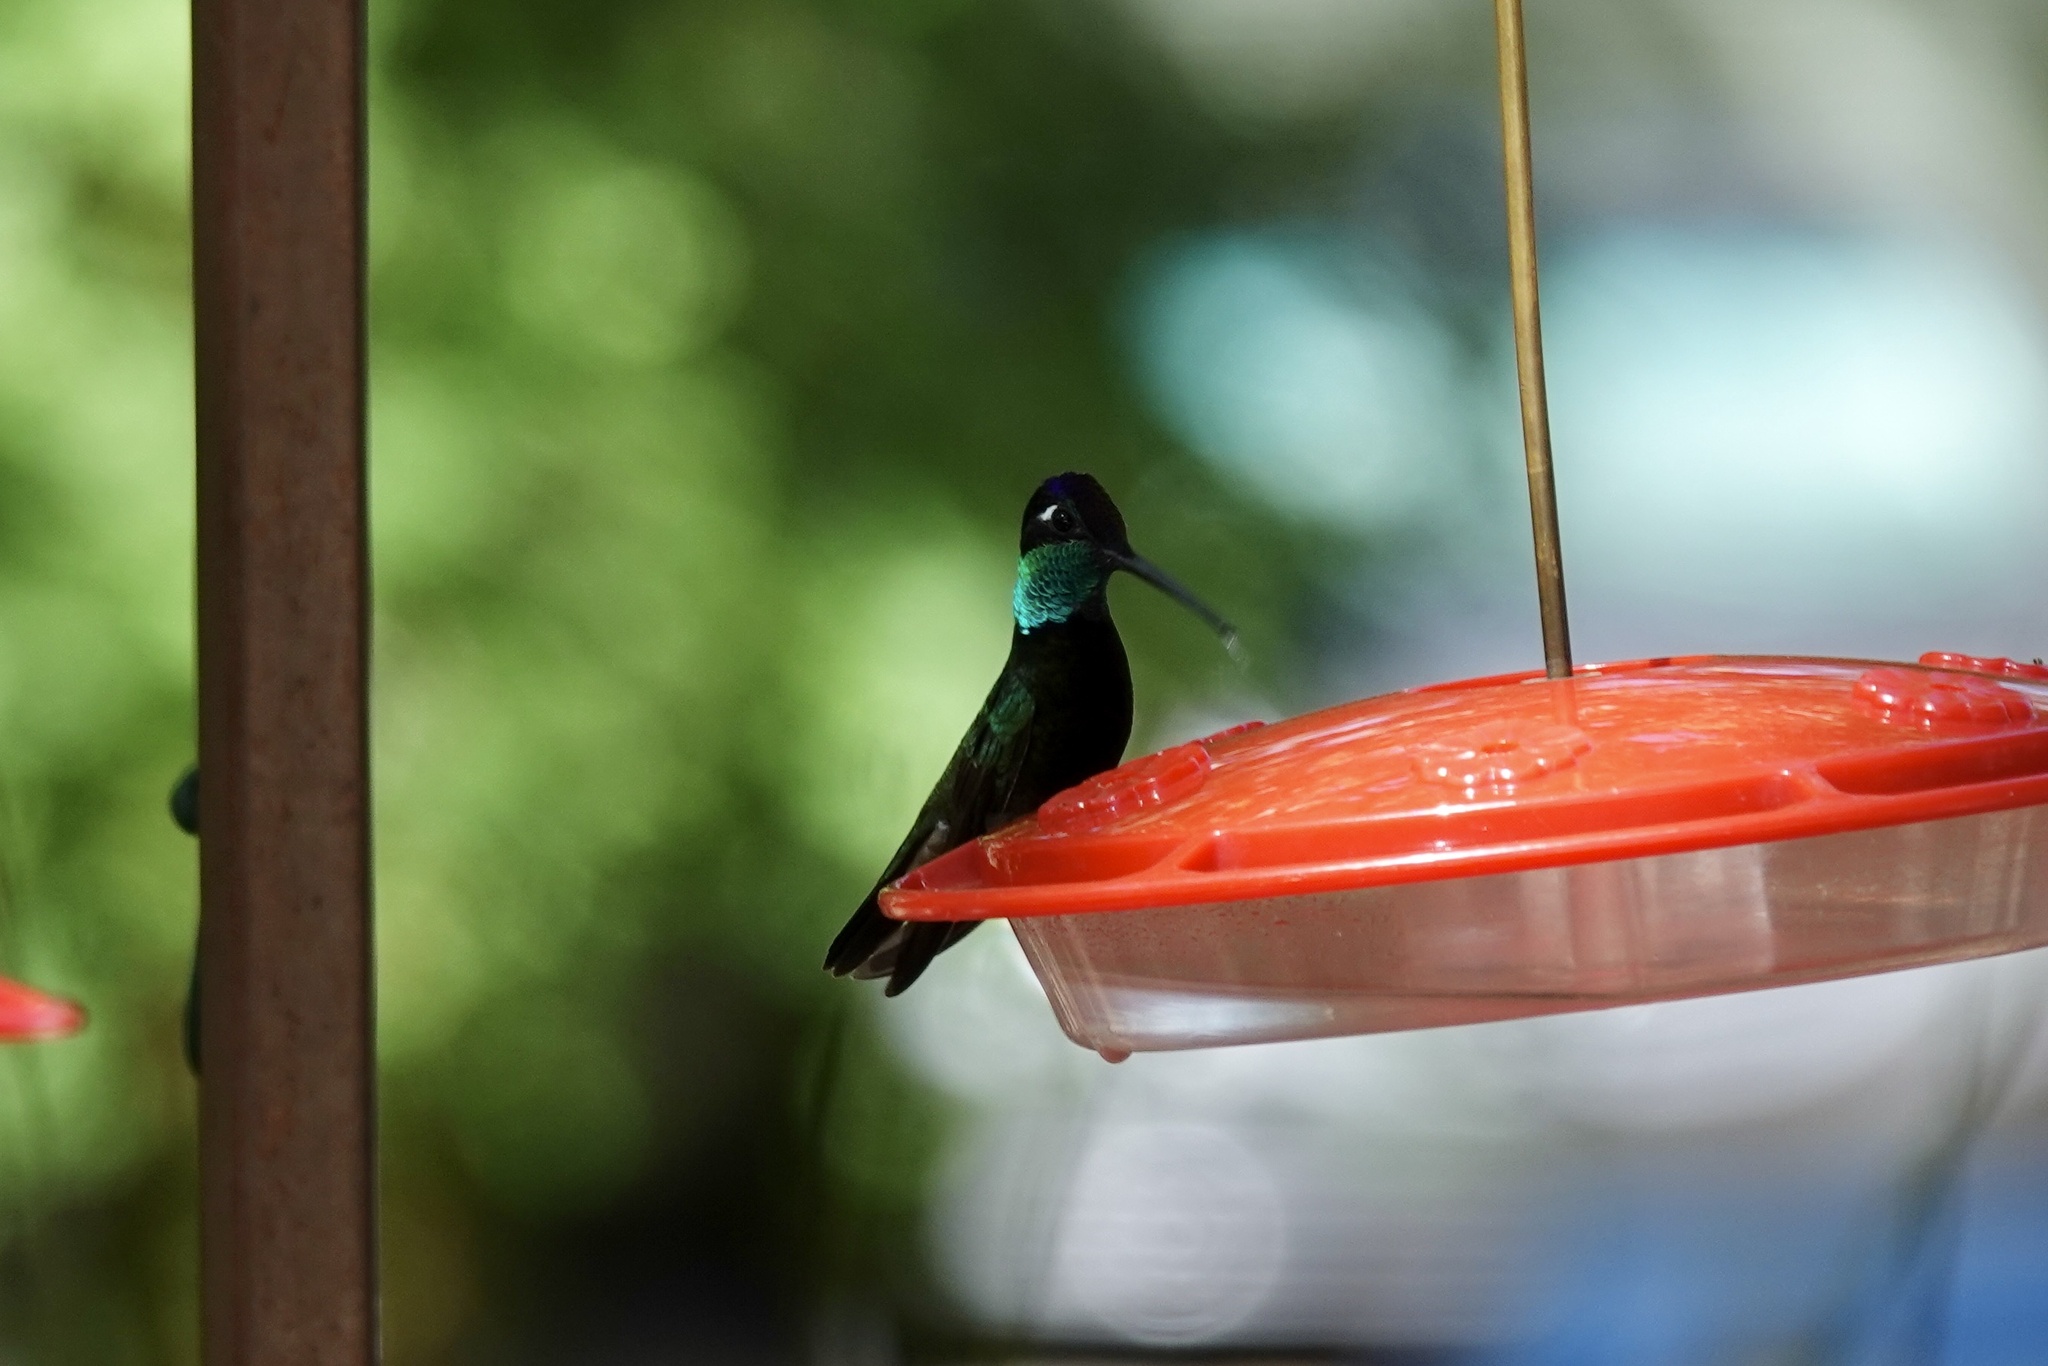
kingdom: Animalia
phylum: Chordata
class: Aves
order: Apodiformes
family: Trochilidae
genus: Eugenes
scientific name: Eugenes fulgens
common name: Magnificent hummingbird
